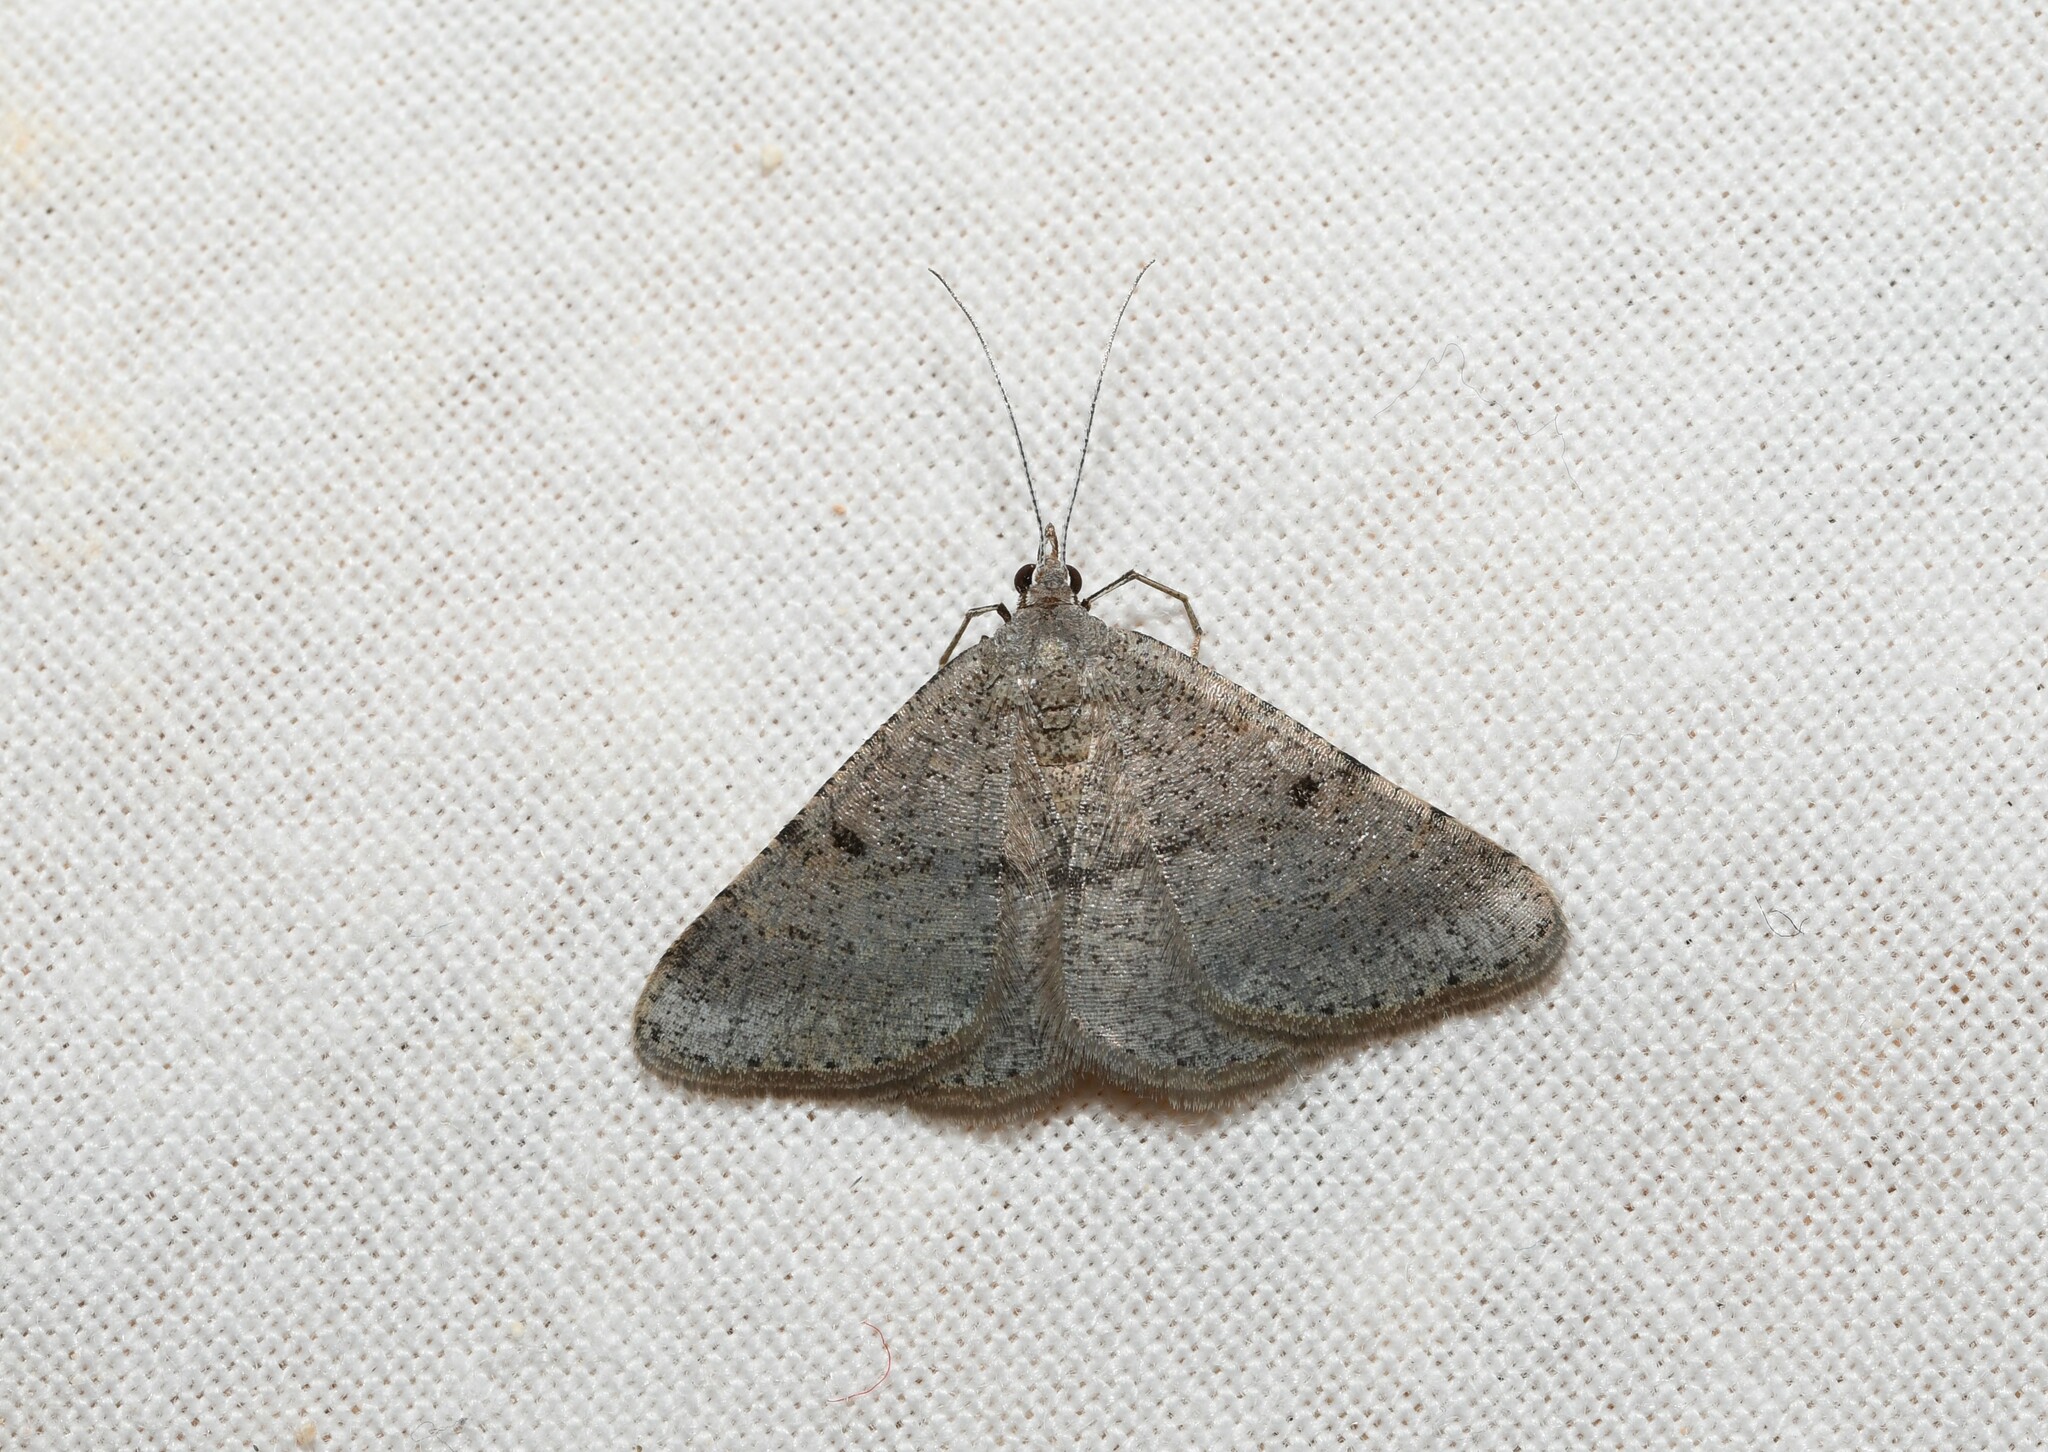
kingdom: Animalia
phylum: Arthropoda
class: Insecta
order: Lepidoptera
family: Geometridae
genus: Acanthovalva
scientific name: Acanthovalva inconspicuaria
